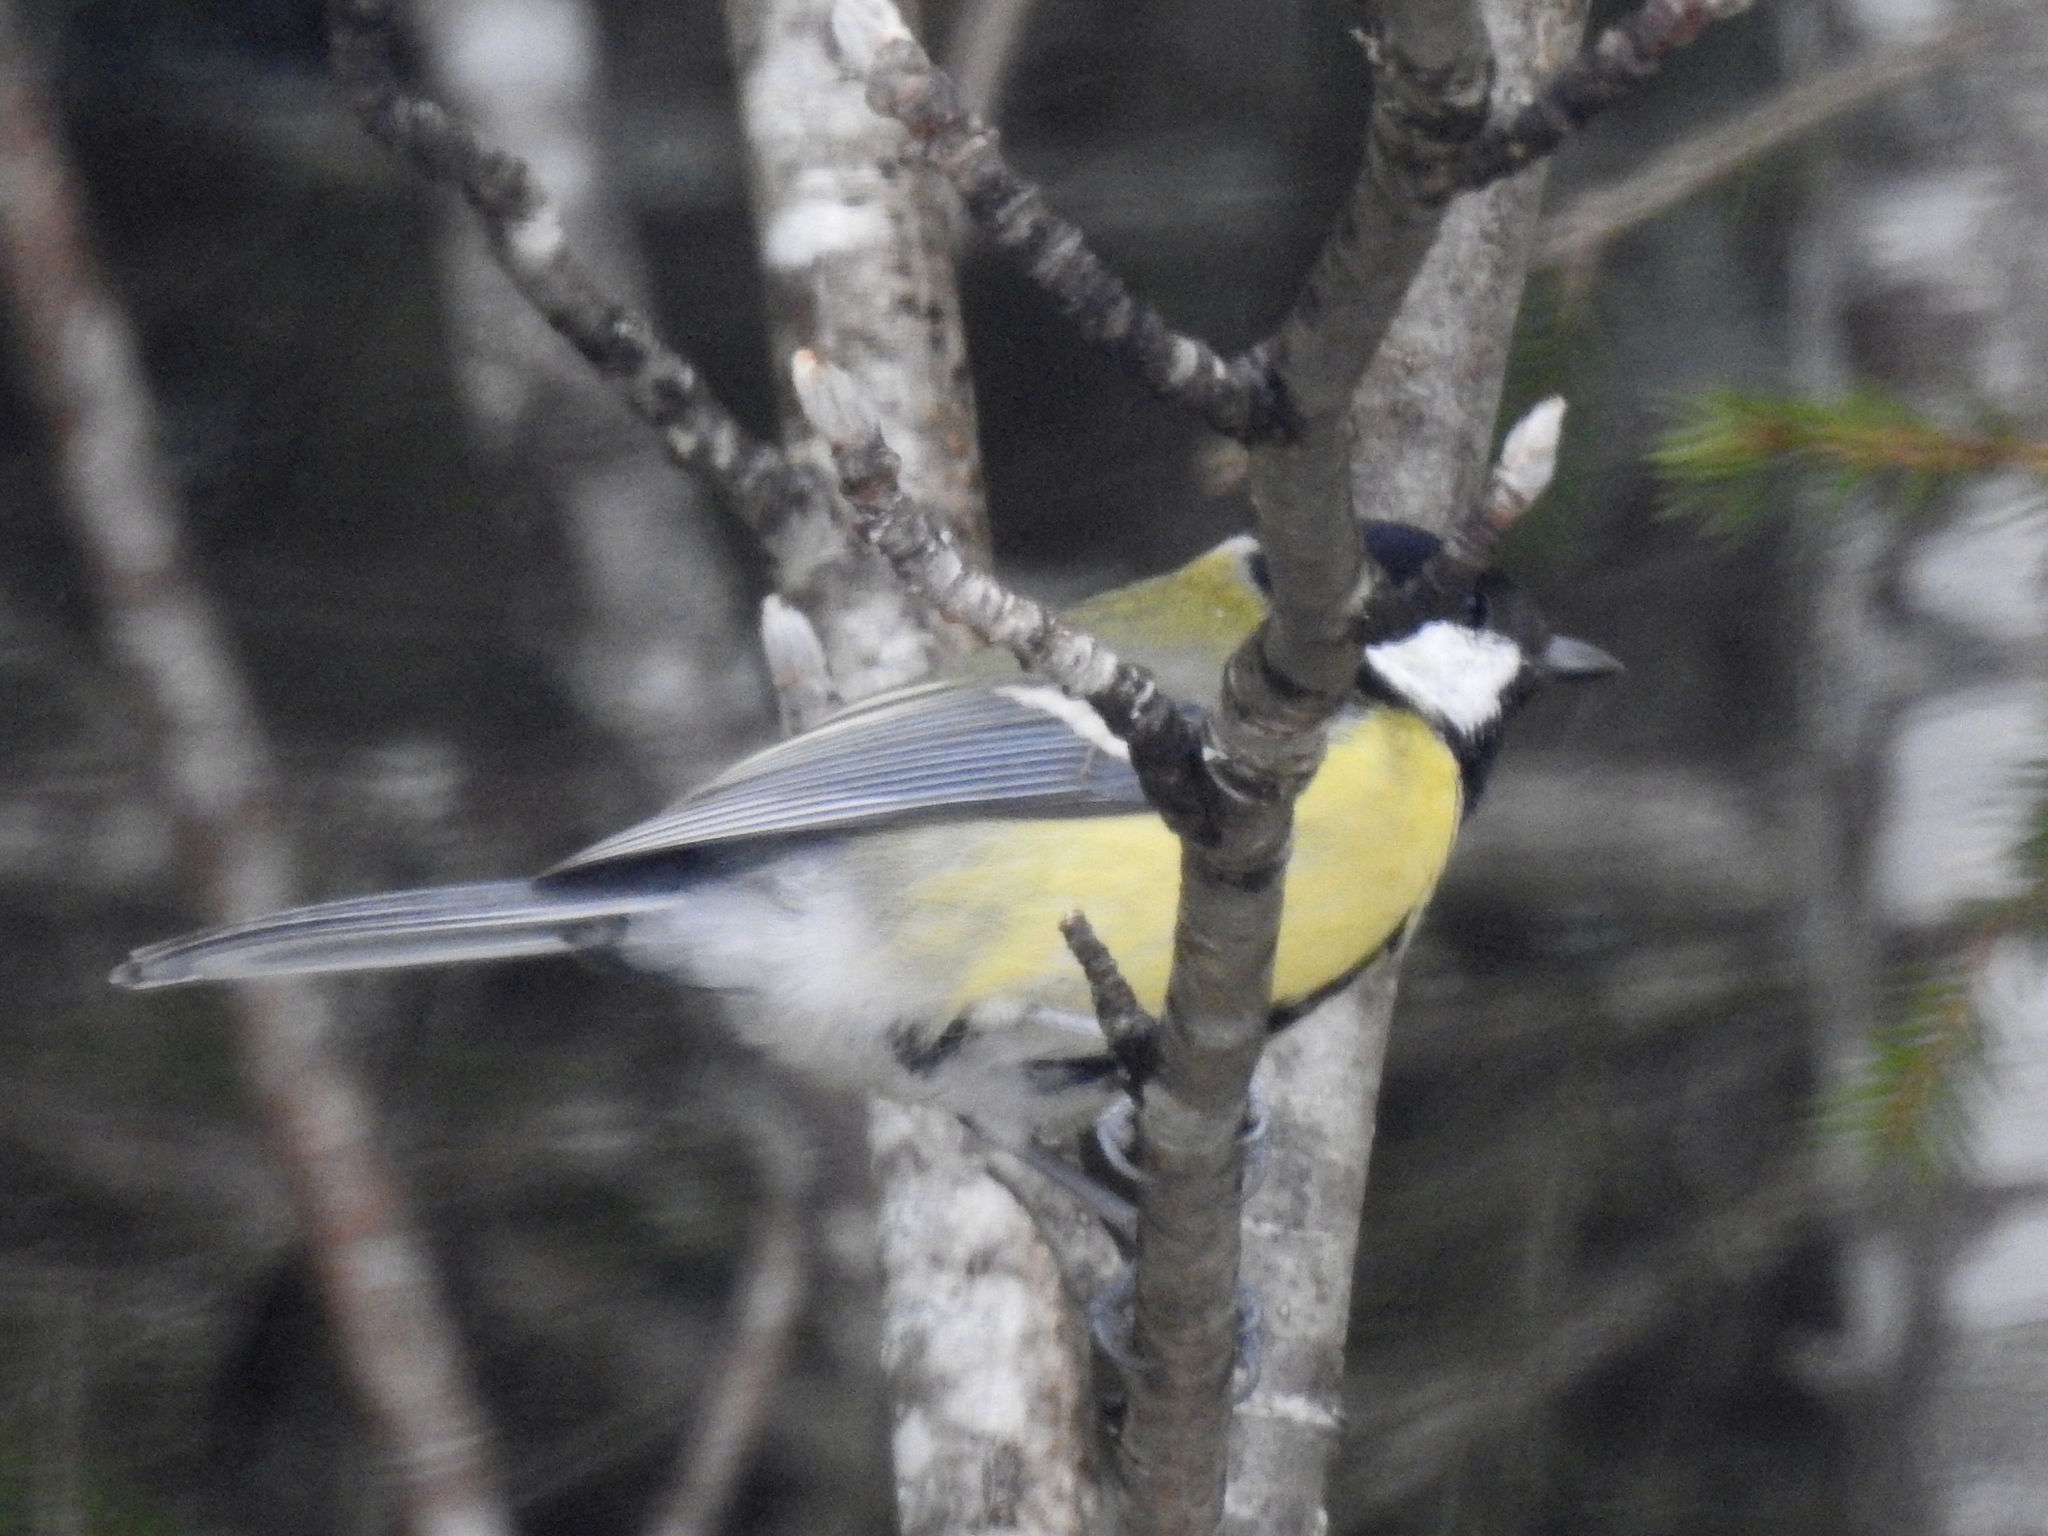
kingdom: Animalia
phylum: Chordata
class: Aves
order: Passeriformes
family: Paridae
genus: Parus
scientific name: Parus major
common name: Great tit
